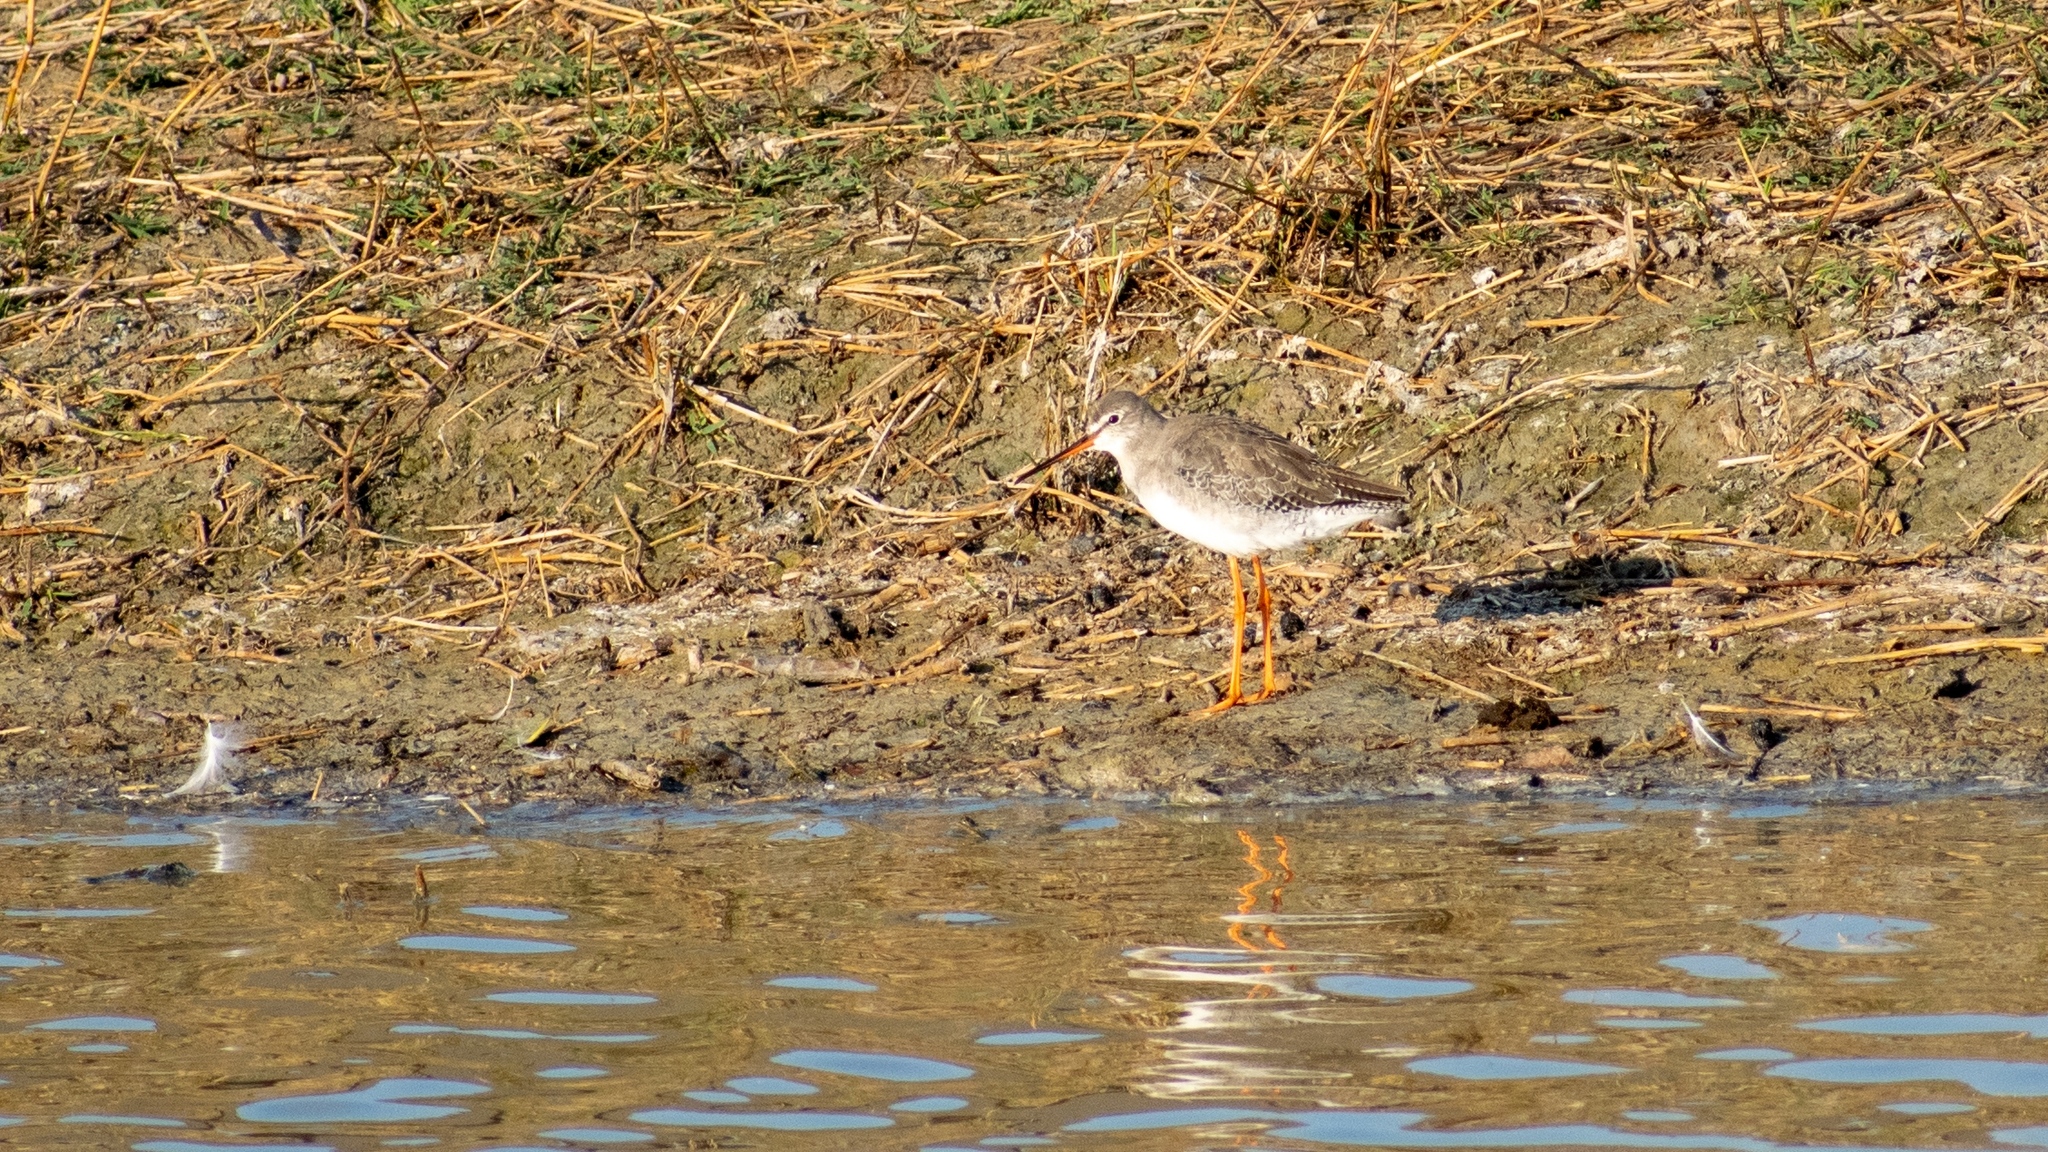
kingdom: Animalia
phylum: Chordata
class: Aves
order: Charadriiformes
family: Scolopacidae
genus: Tringa
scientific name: Tringa totanus
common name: Common redshank
